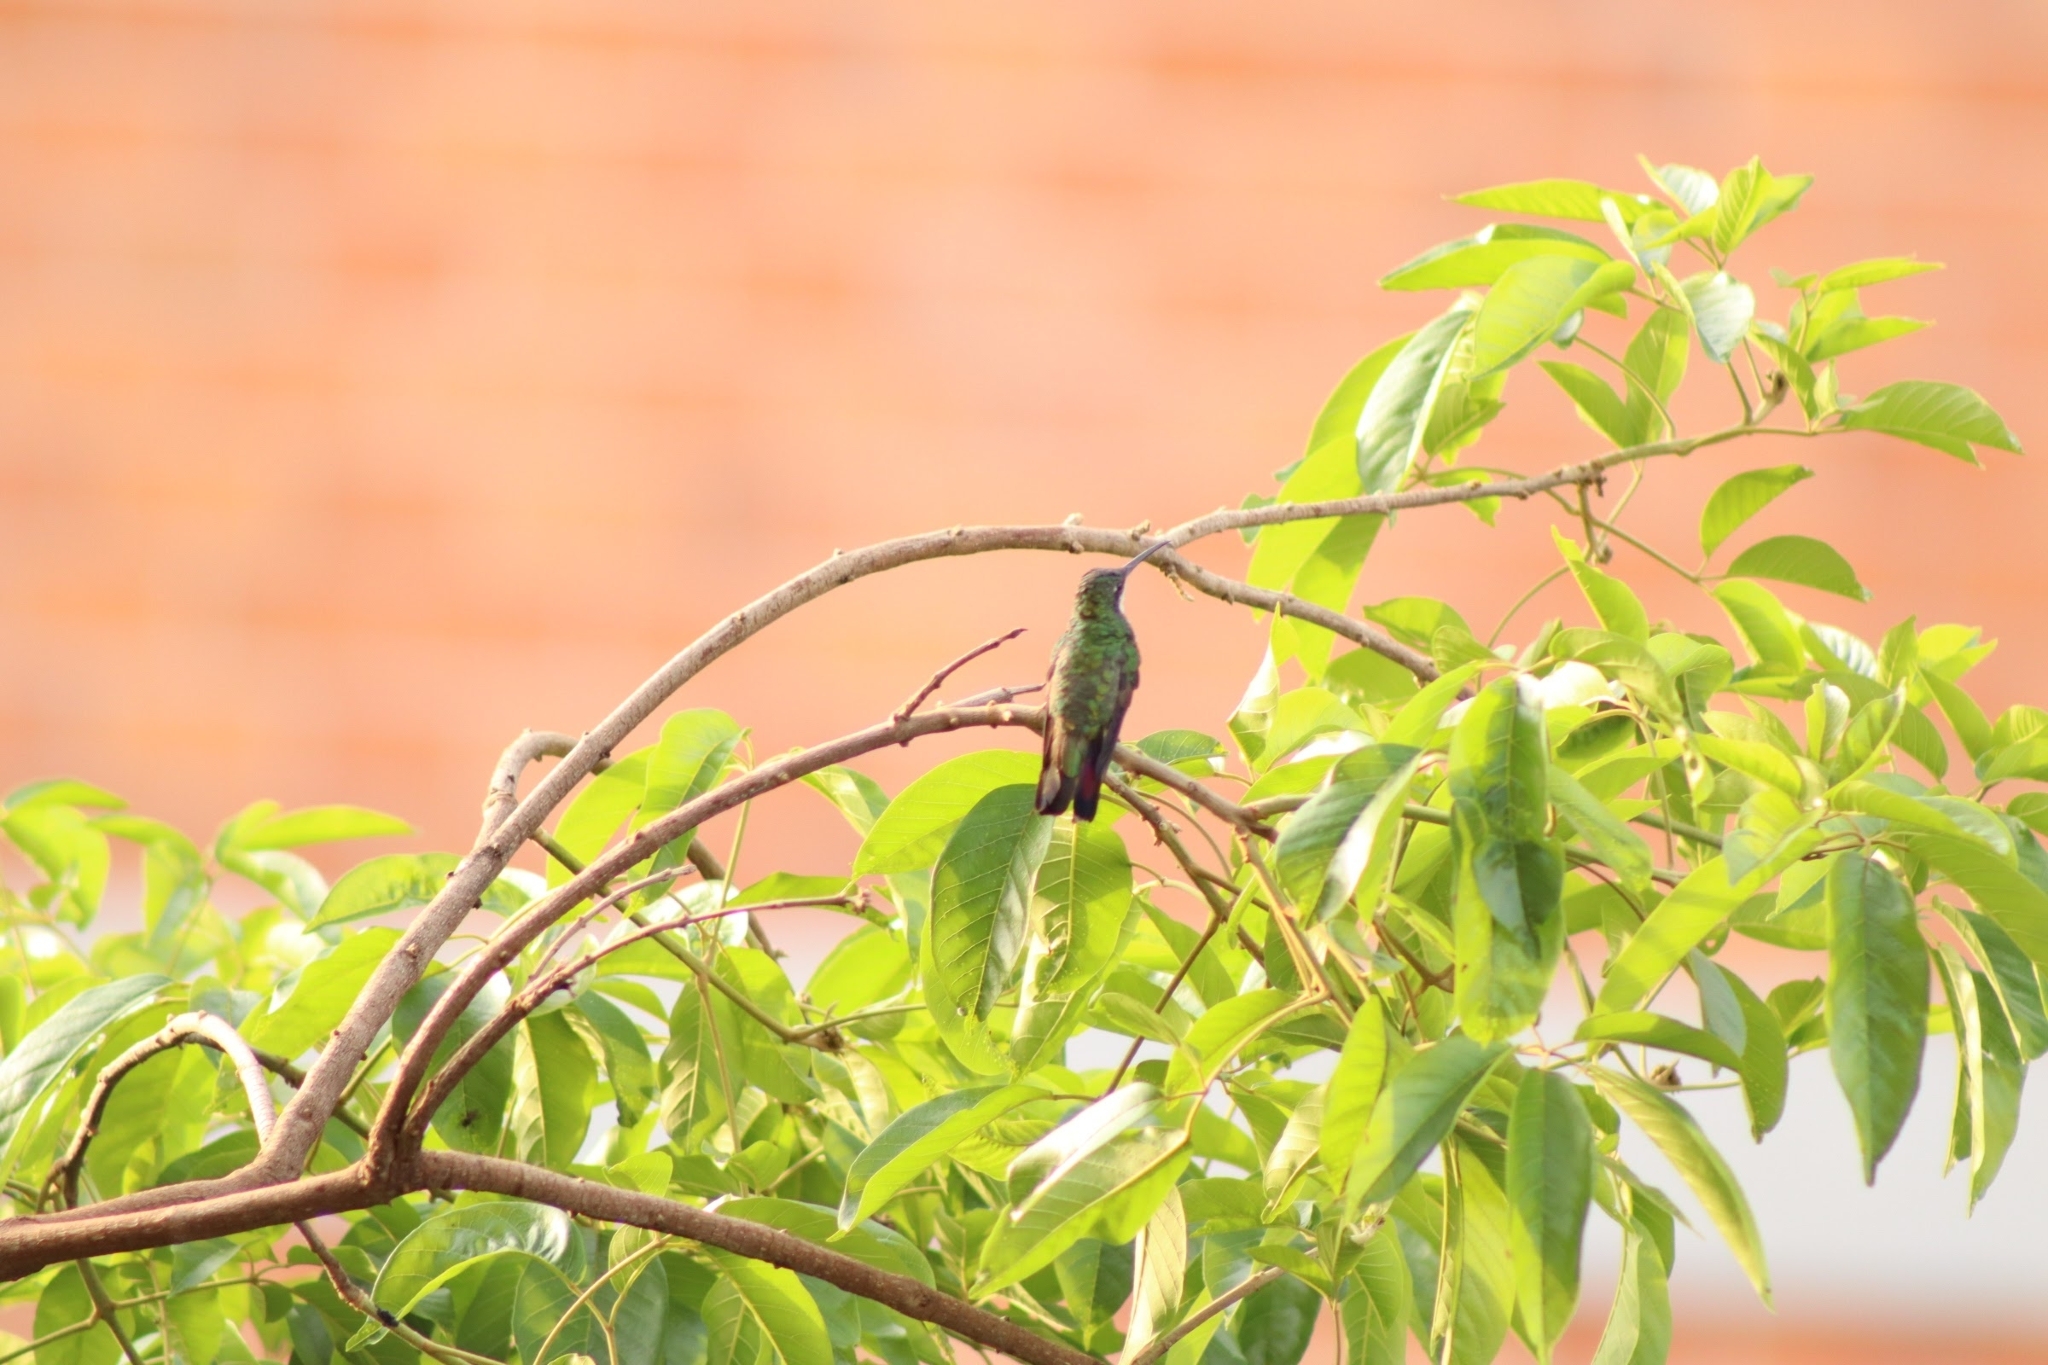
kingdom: Animalia
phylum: Chordata
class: Aves
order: Apodiformes
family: Trochilidae
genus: Anthracothorax
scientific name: Anthracothorax nigricollis
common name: Black-throated mango
